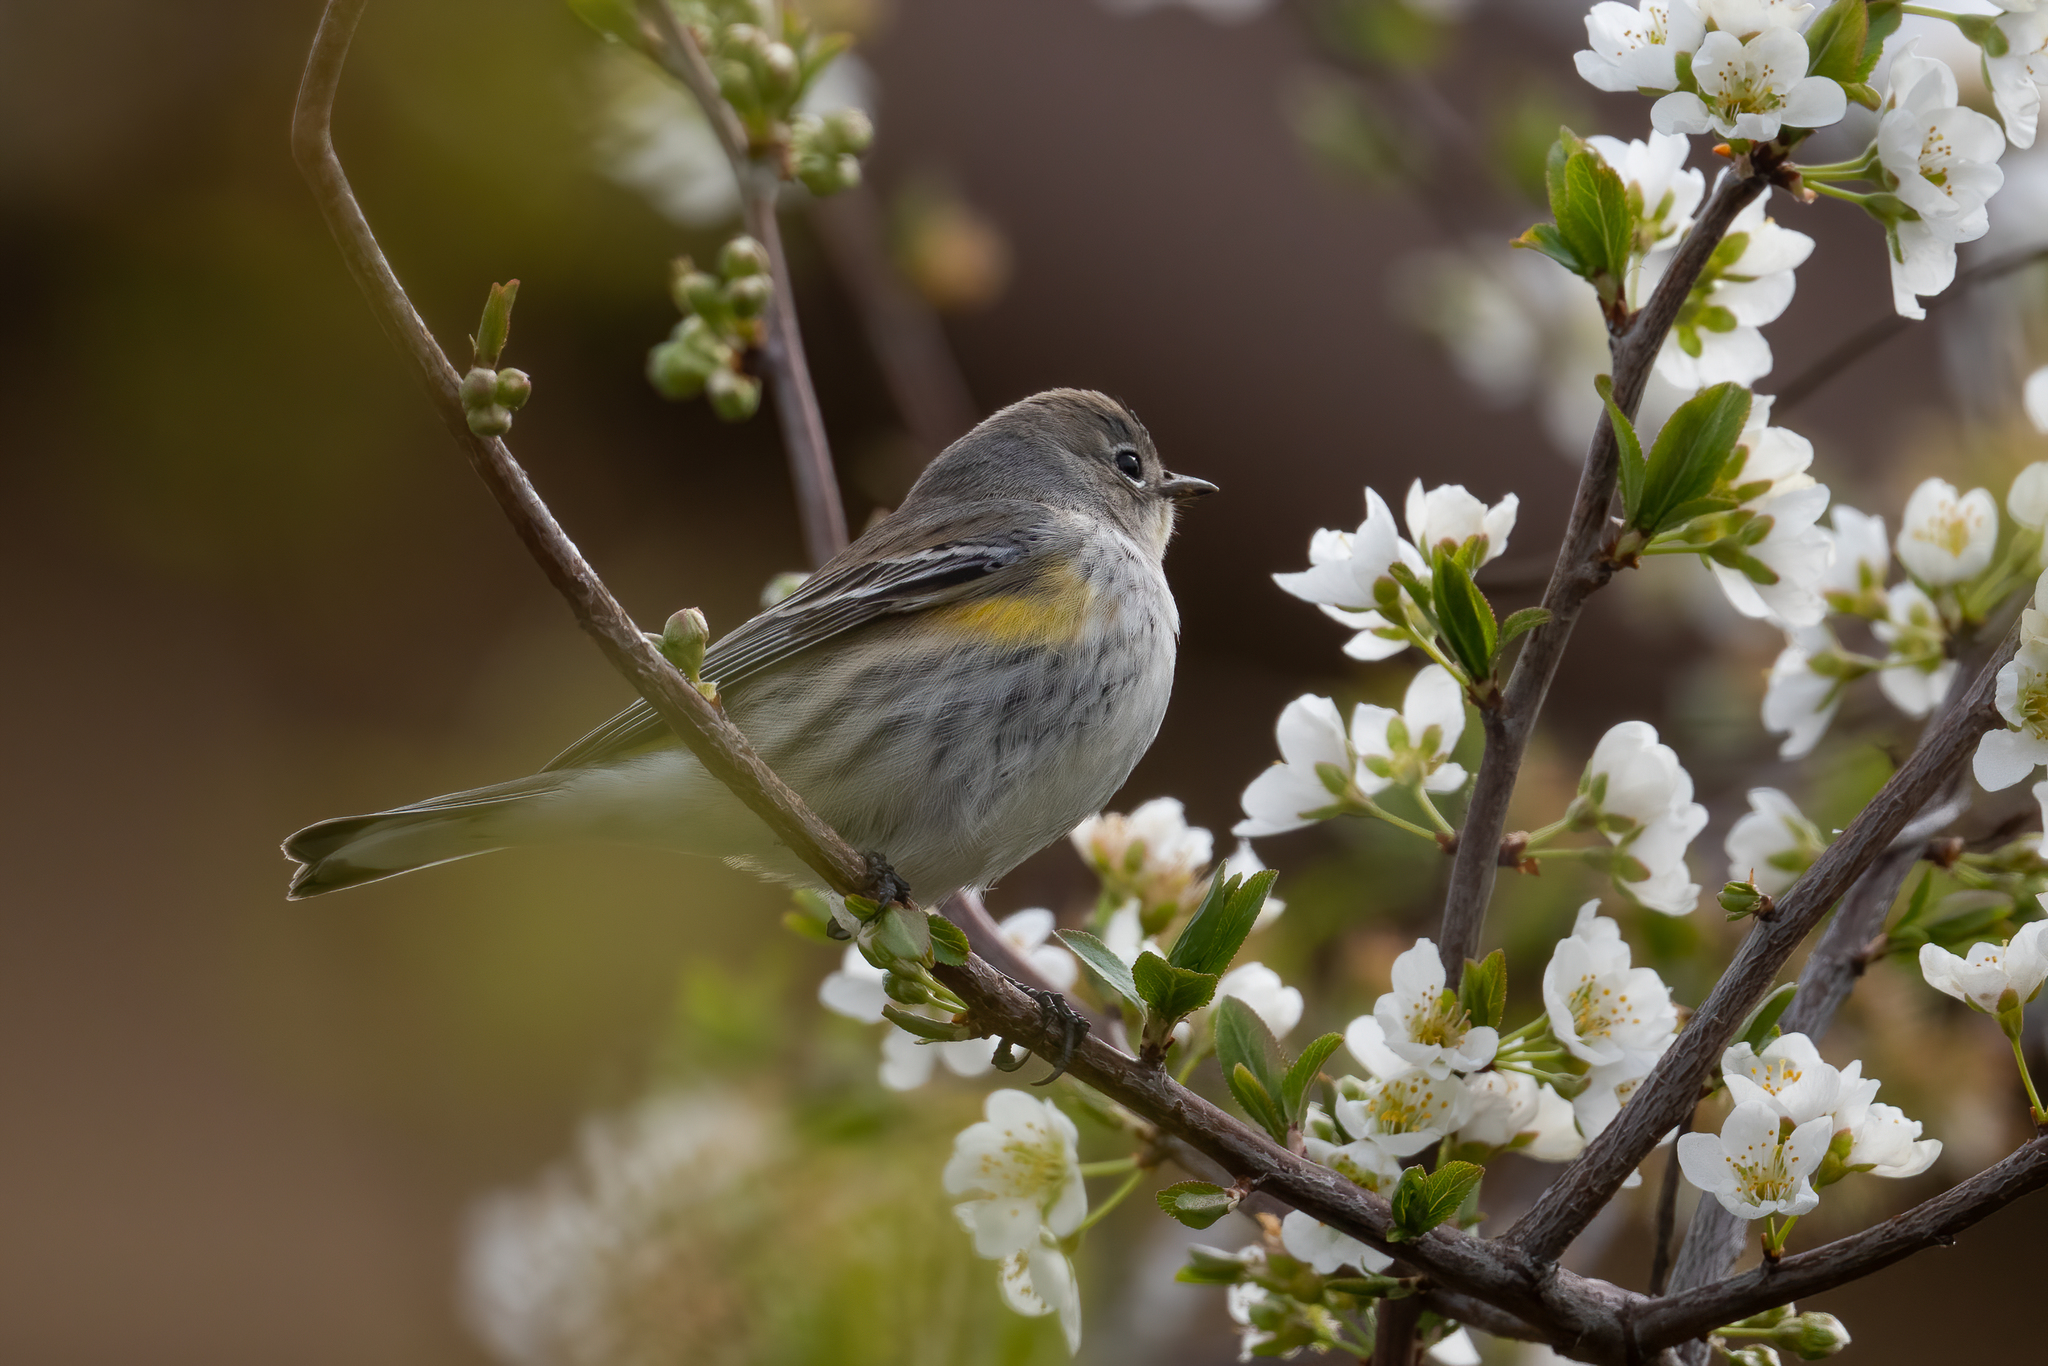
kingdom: Animalia
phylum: Chordata
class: Aves
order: Passeriformes
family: Parulidae
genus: Setophaga
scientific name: Setophaga coronata
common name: Myrtle warbler
